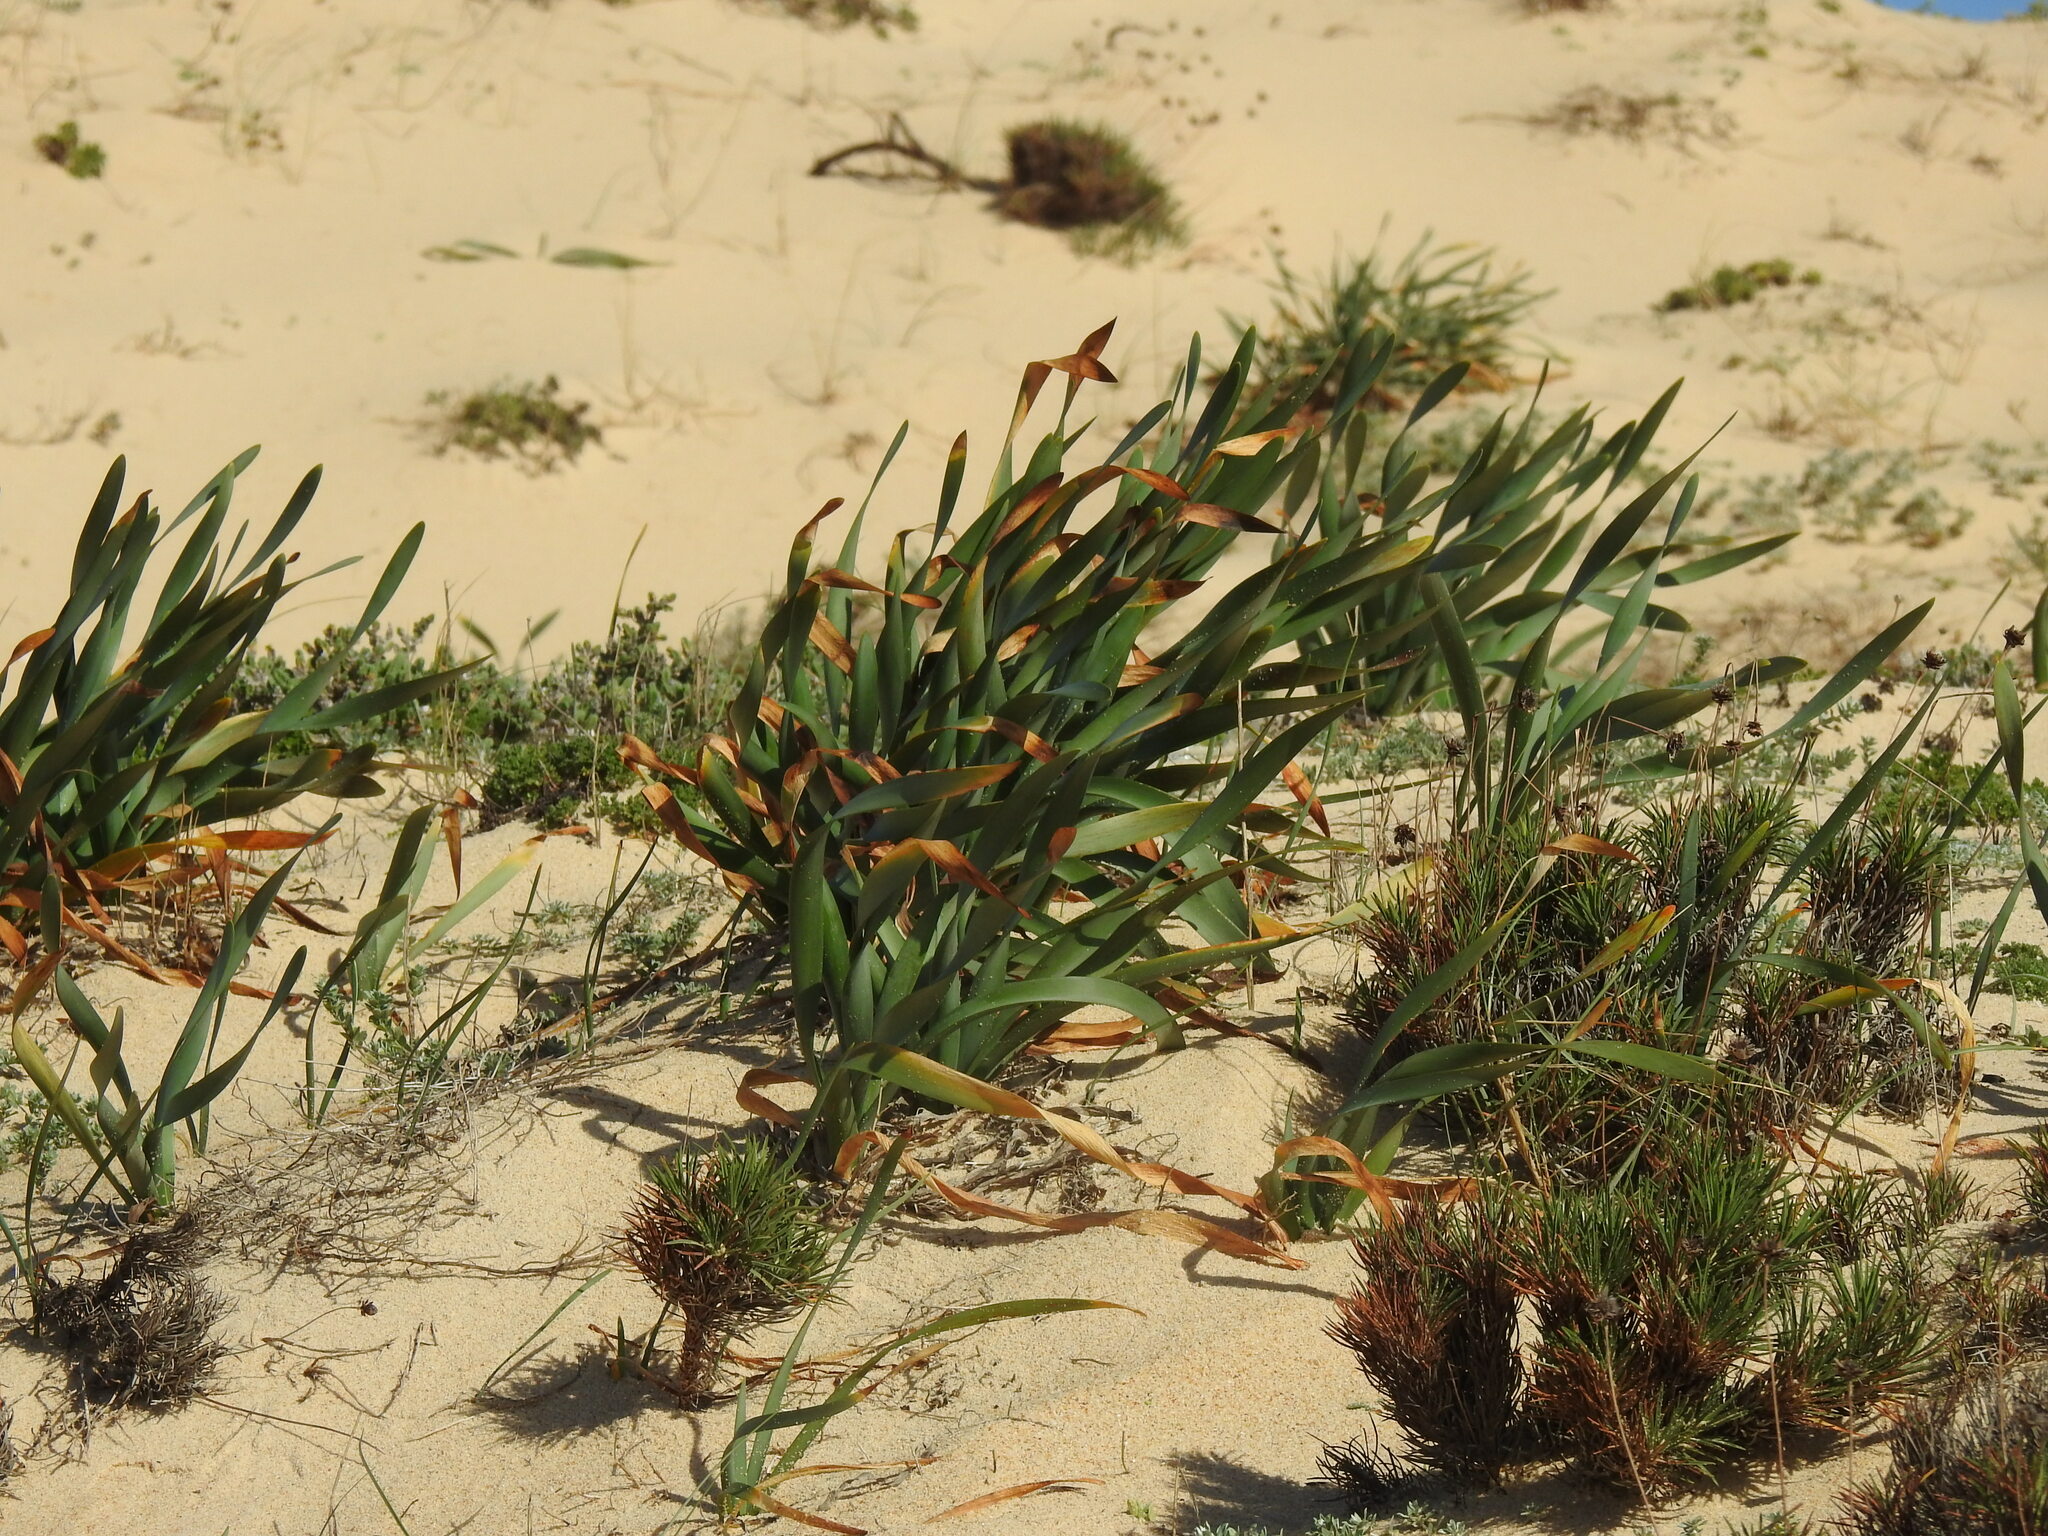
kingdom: Plantae
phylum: Tracheophyta
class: Liliopsida
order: Asparagales
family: Amaryllidaceae
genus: Pancratium
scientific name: Pancratium maritimum
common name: Sea-daffodil
